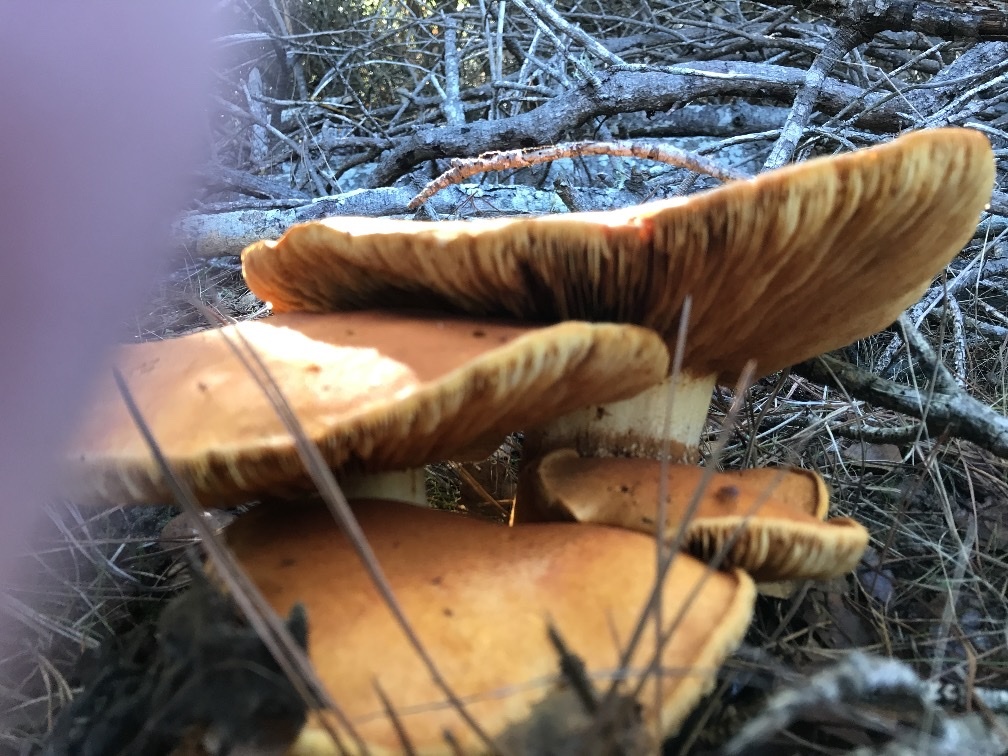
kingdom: Fungi
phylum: Basidiomycota
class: Agaricomycetes
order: Agaricales
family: Hymenogastraceae
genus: Gymnopilus
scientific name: Gymnopilus ventricosus
